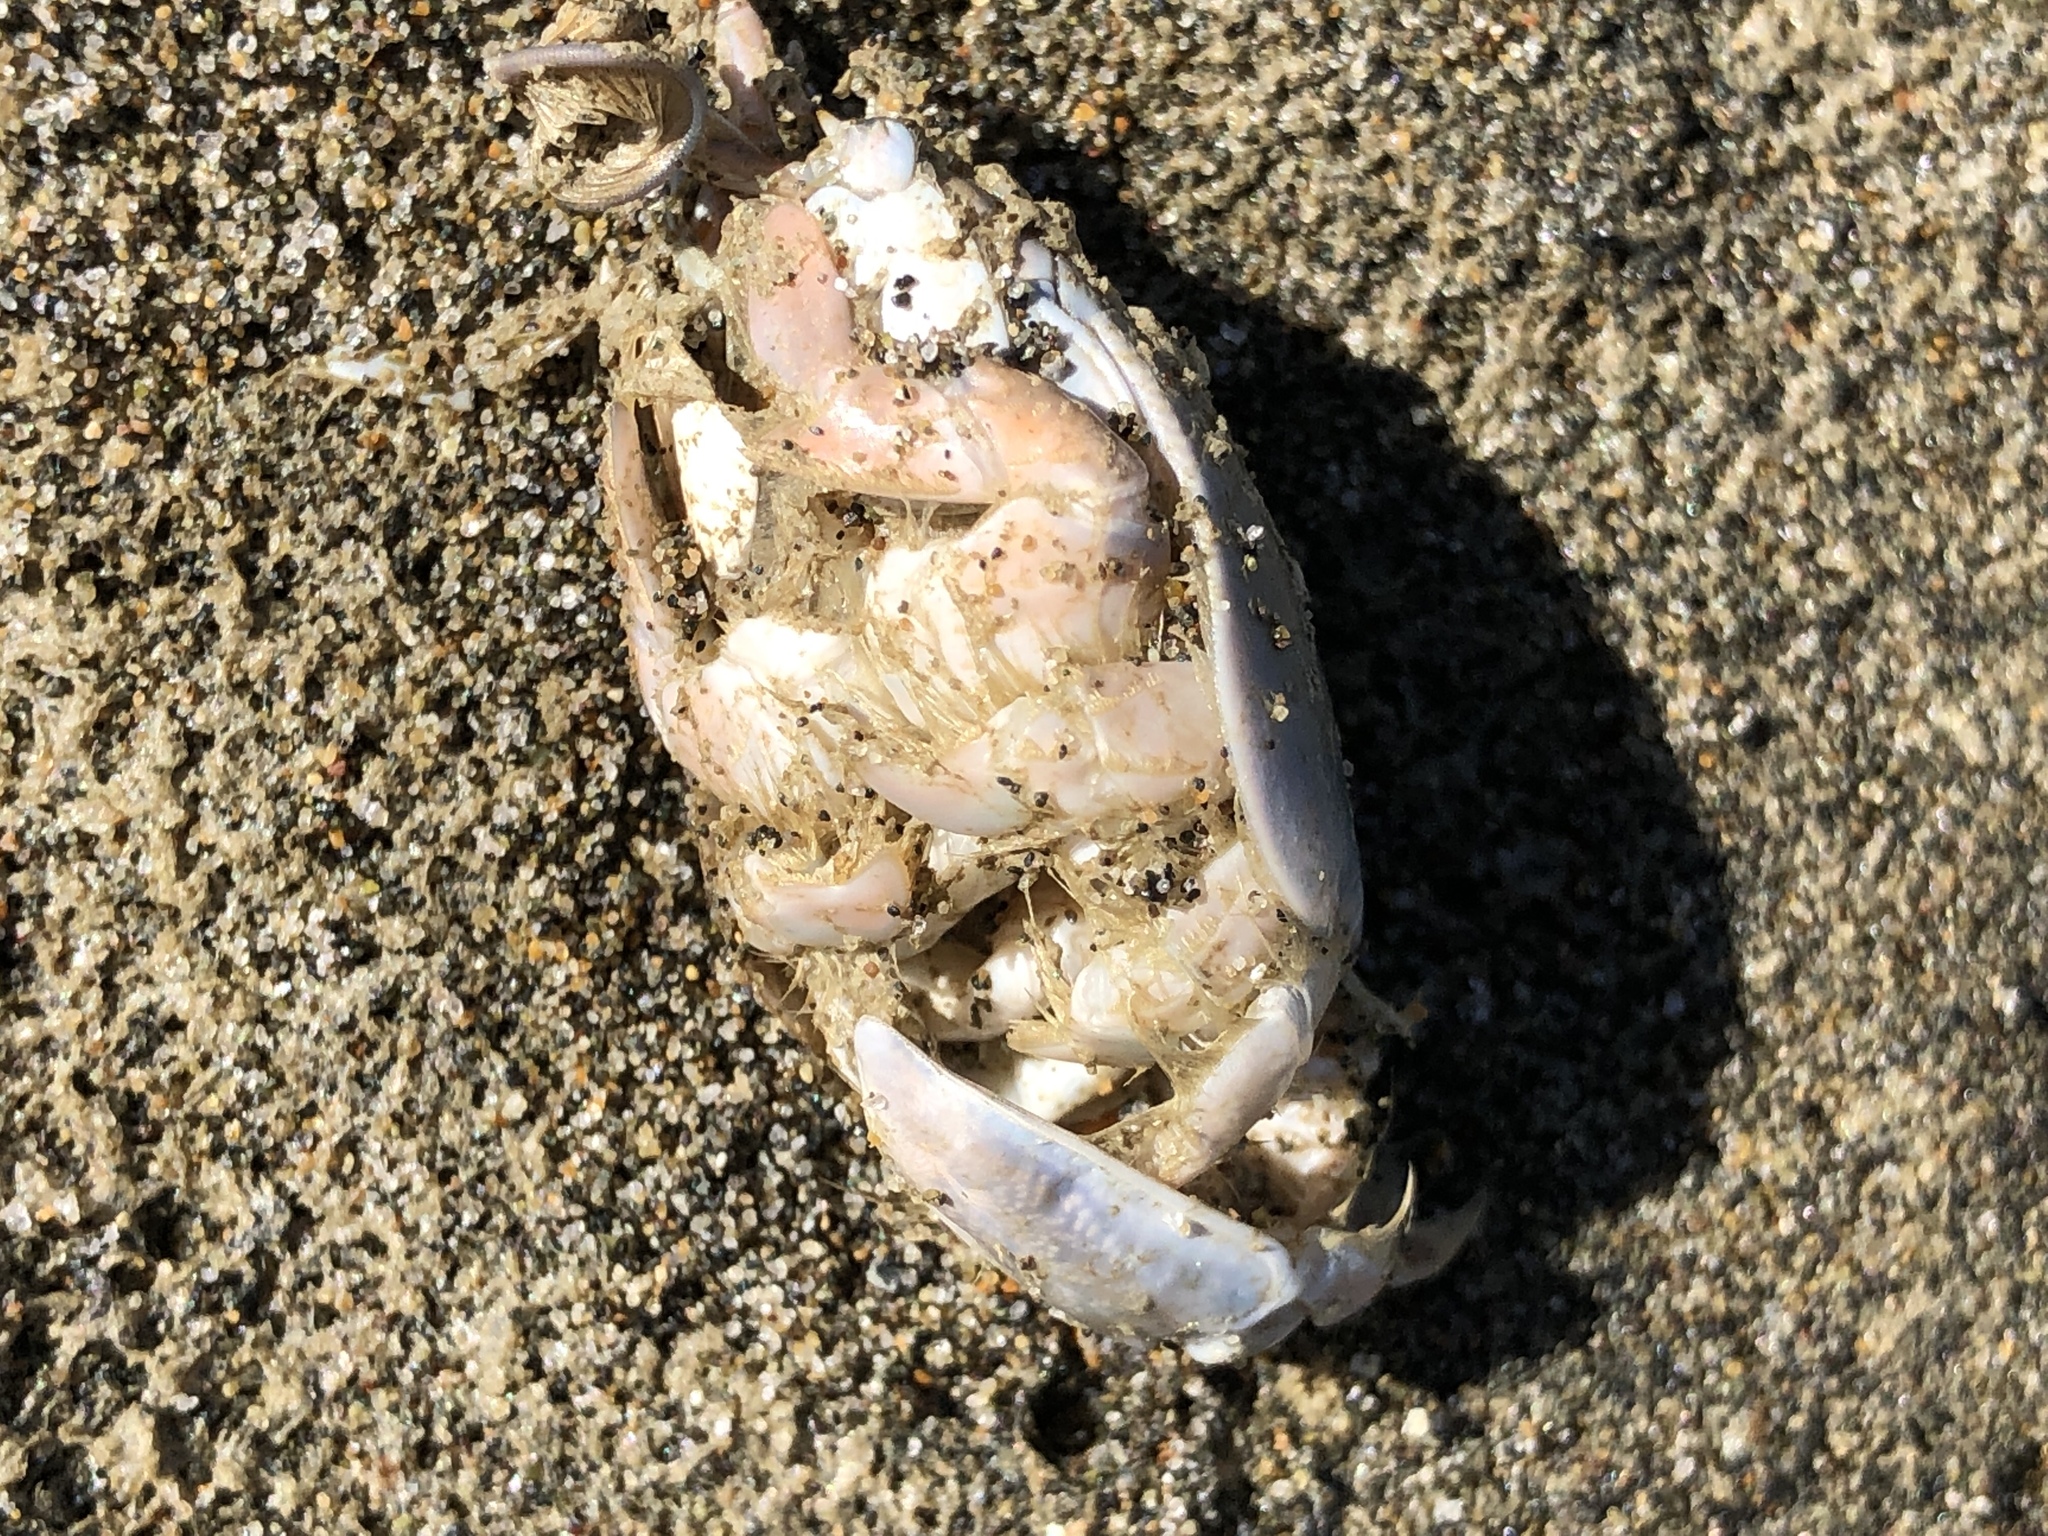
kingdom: Animalia
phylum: Arthropoda
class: Malacostraca
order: Decapoda
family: Hippidae
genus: Emerita
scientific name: Emerita analoga
